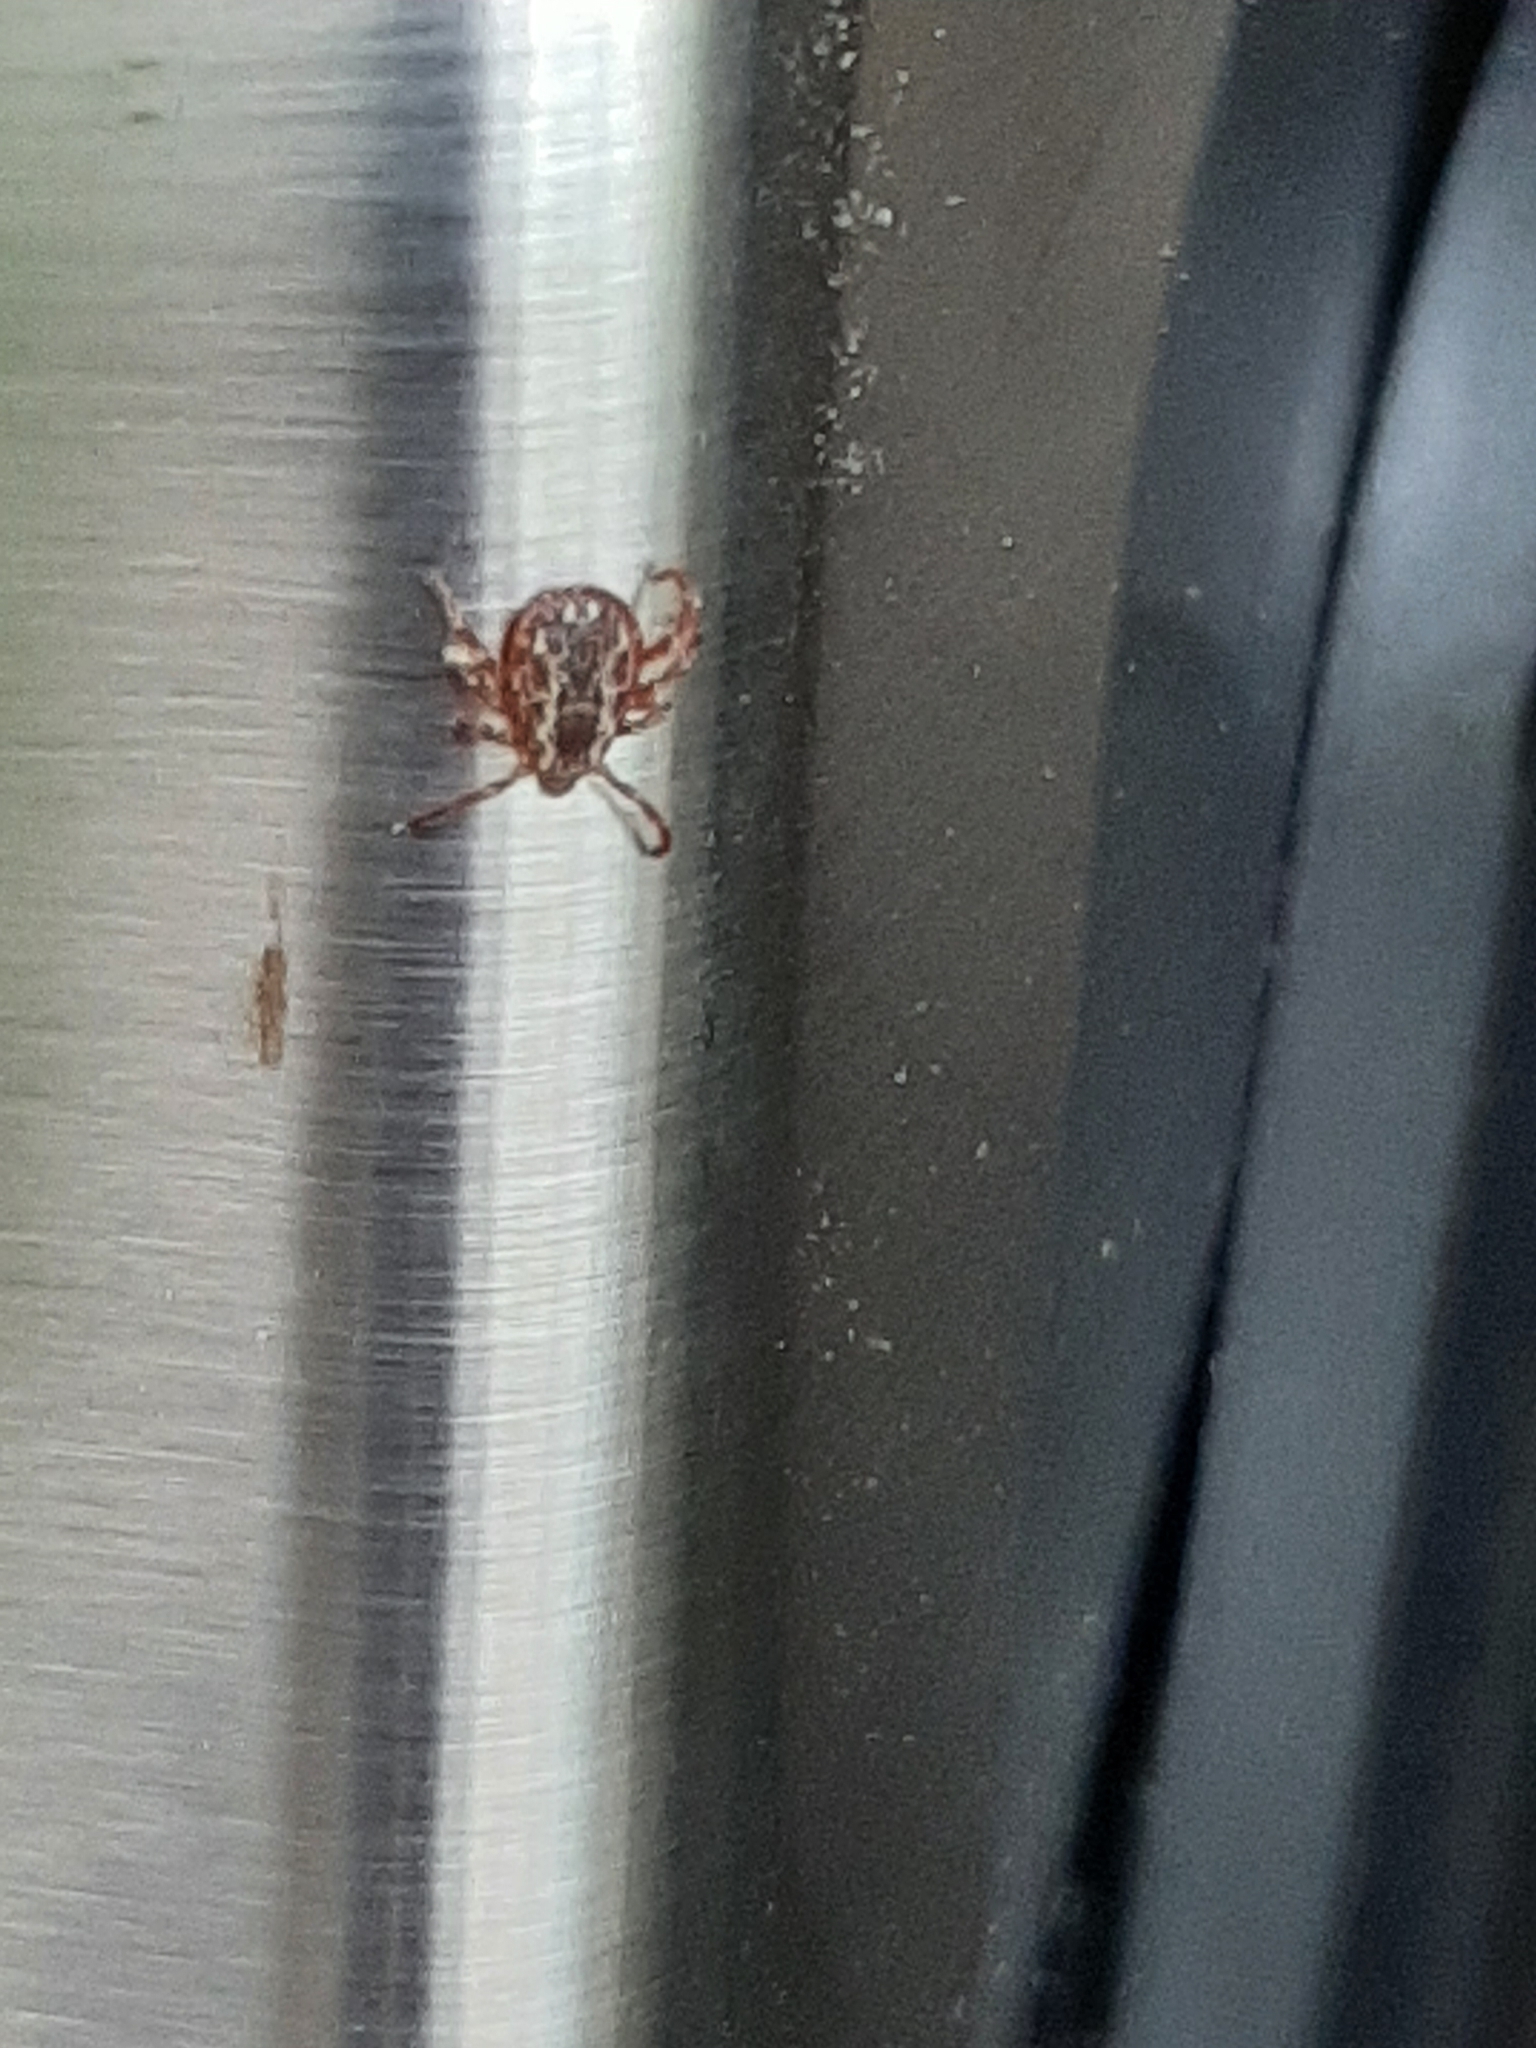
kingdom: Animalia
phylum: Arthropoda
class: Arachnida
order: Ixodida
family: Ixodidae
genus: Dermacentor
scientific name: Dermacentor variabilis
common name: American dog tick
